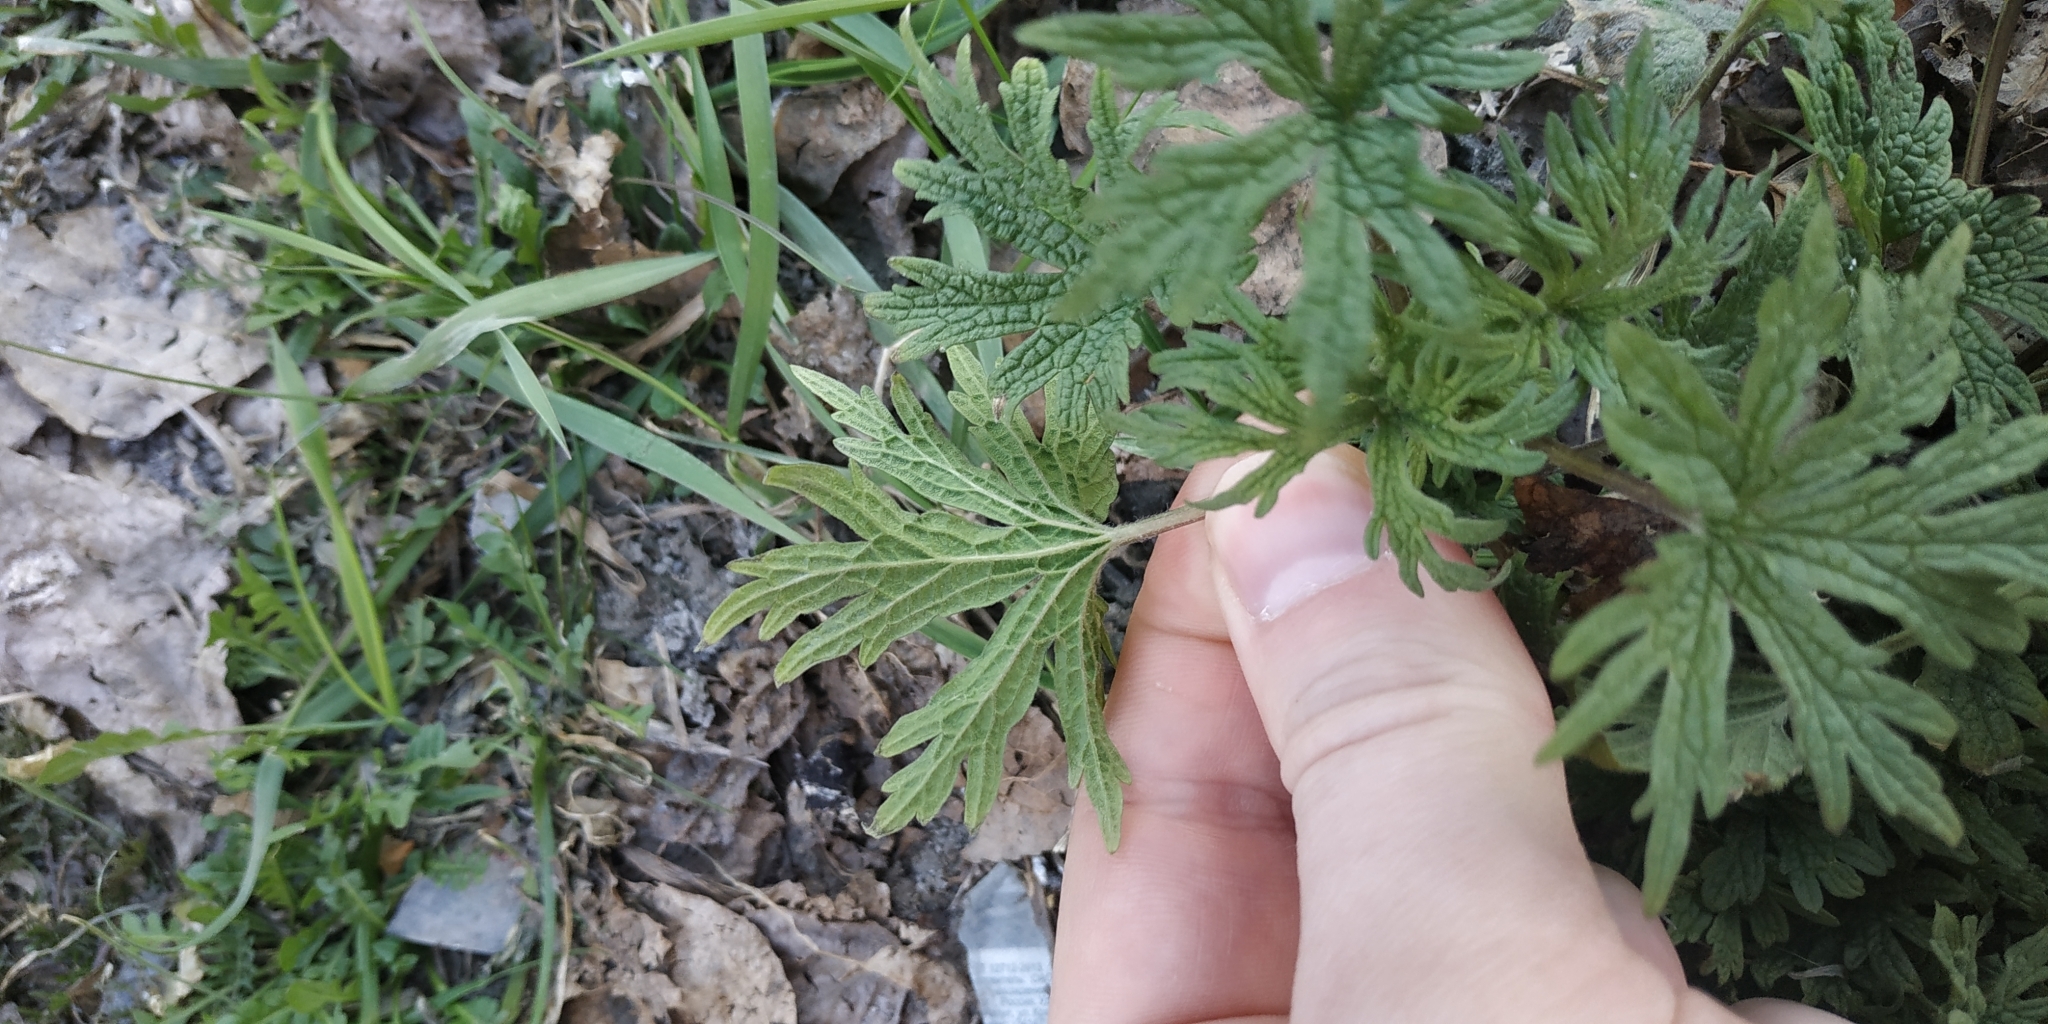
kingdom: Plantae
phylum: Tracheophyta
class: Magnoliopsida
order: Lamiales
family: Lamiaceae
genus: Leonurus
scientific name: Leonurus quinquelobatus
